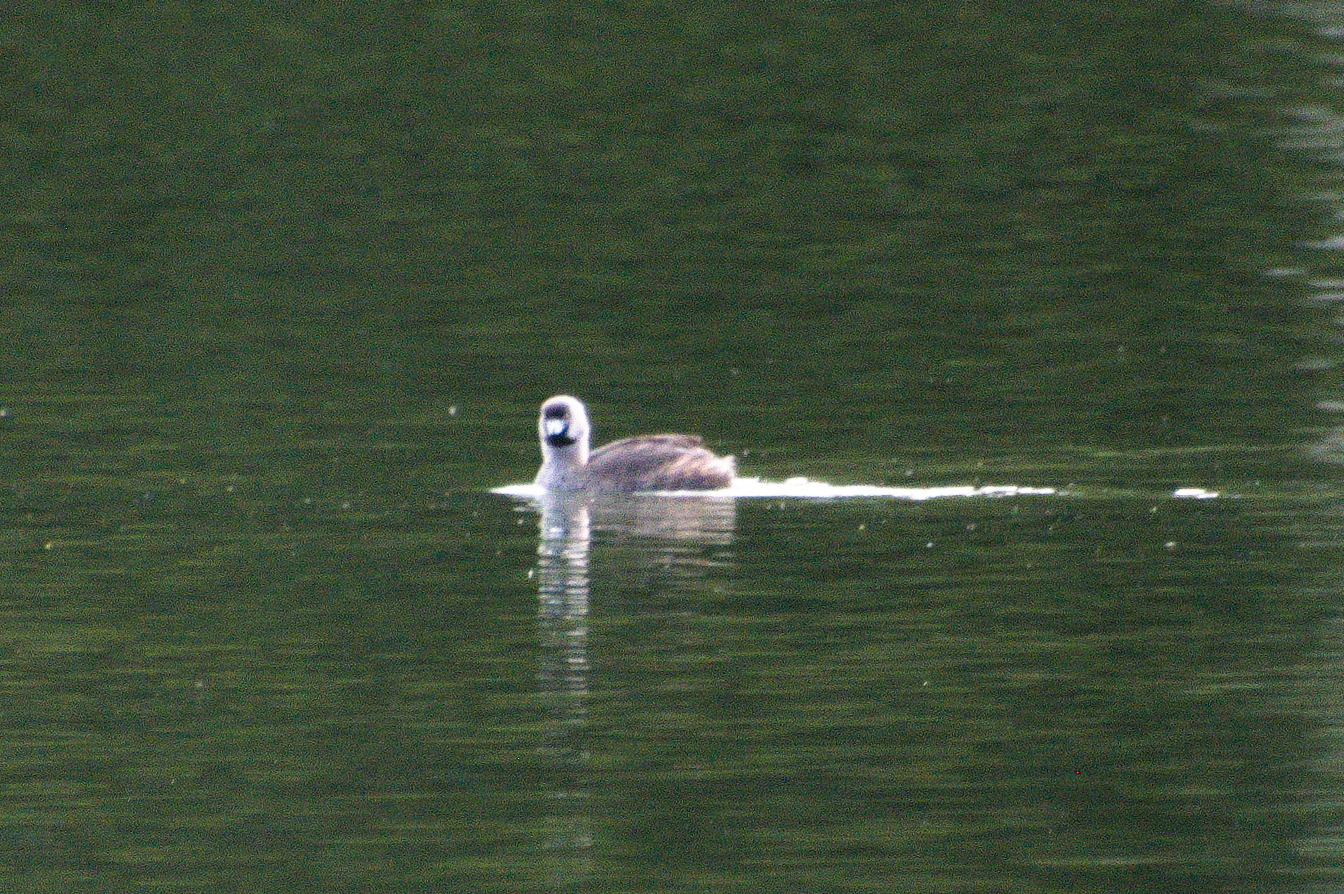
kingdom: Animalia
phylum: Chordata
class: Aves
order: Podicipediformes
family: Podicipedidae
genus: Podilymbus
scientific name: Podilymbus podiceps
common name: Pied-billed grebe
